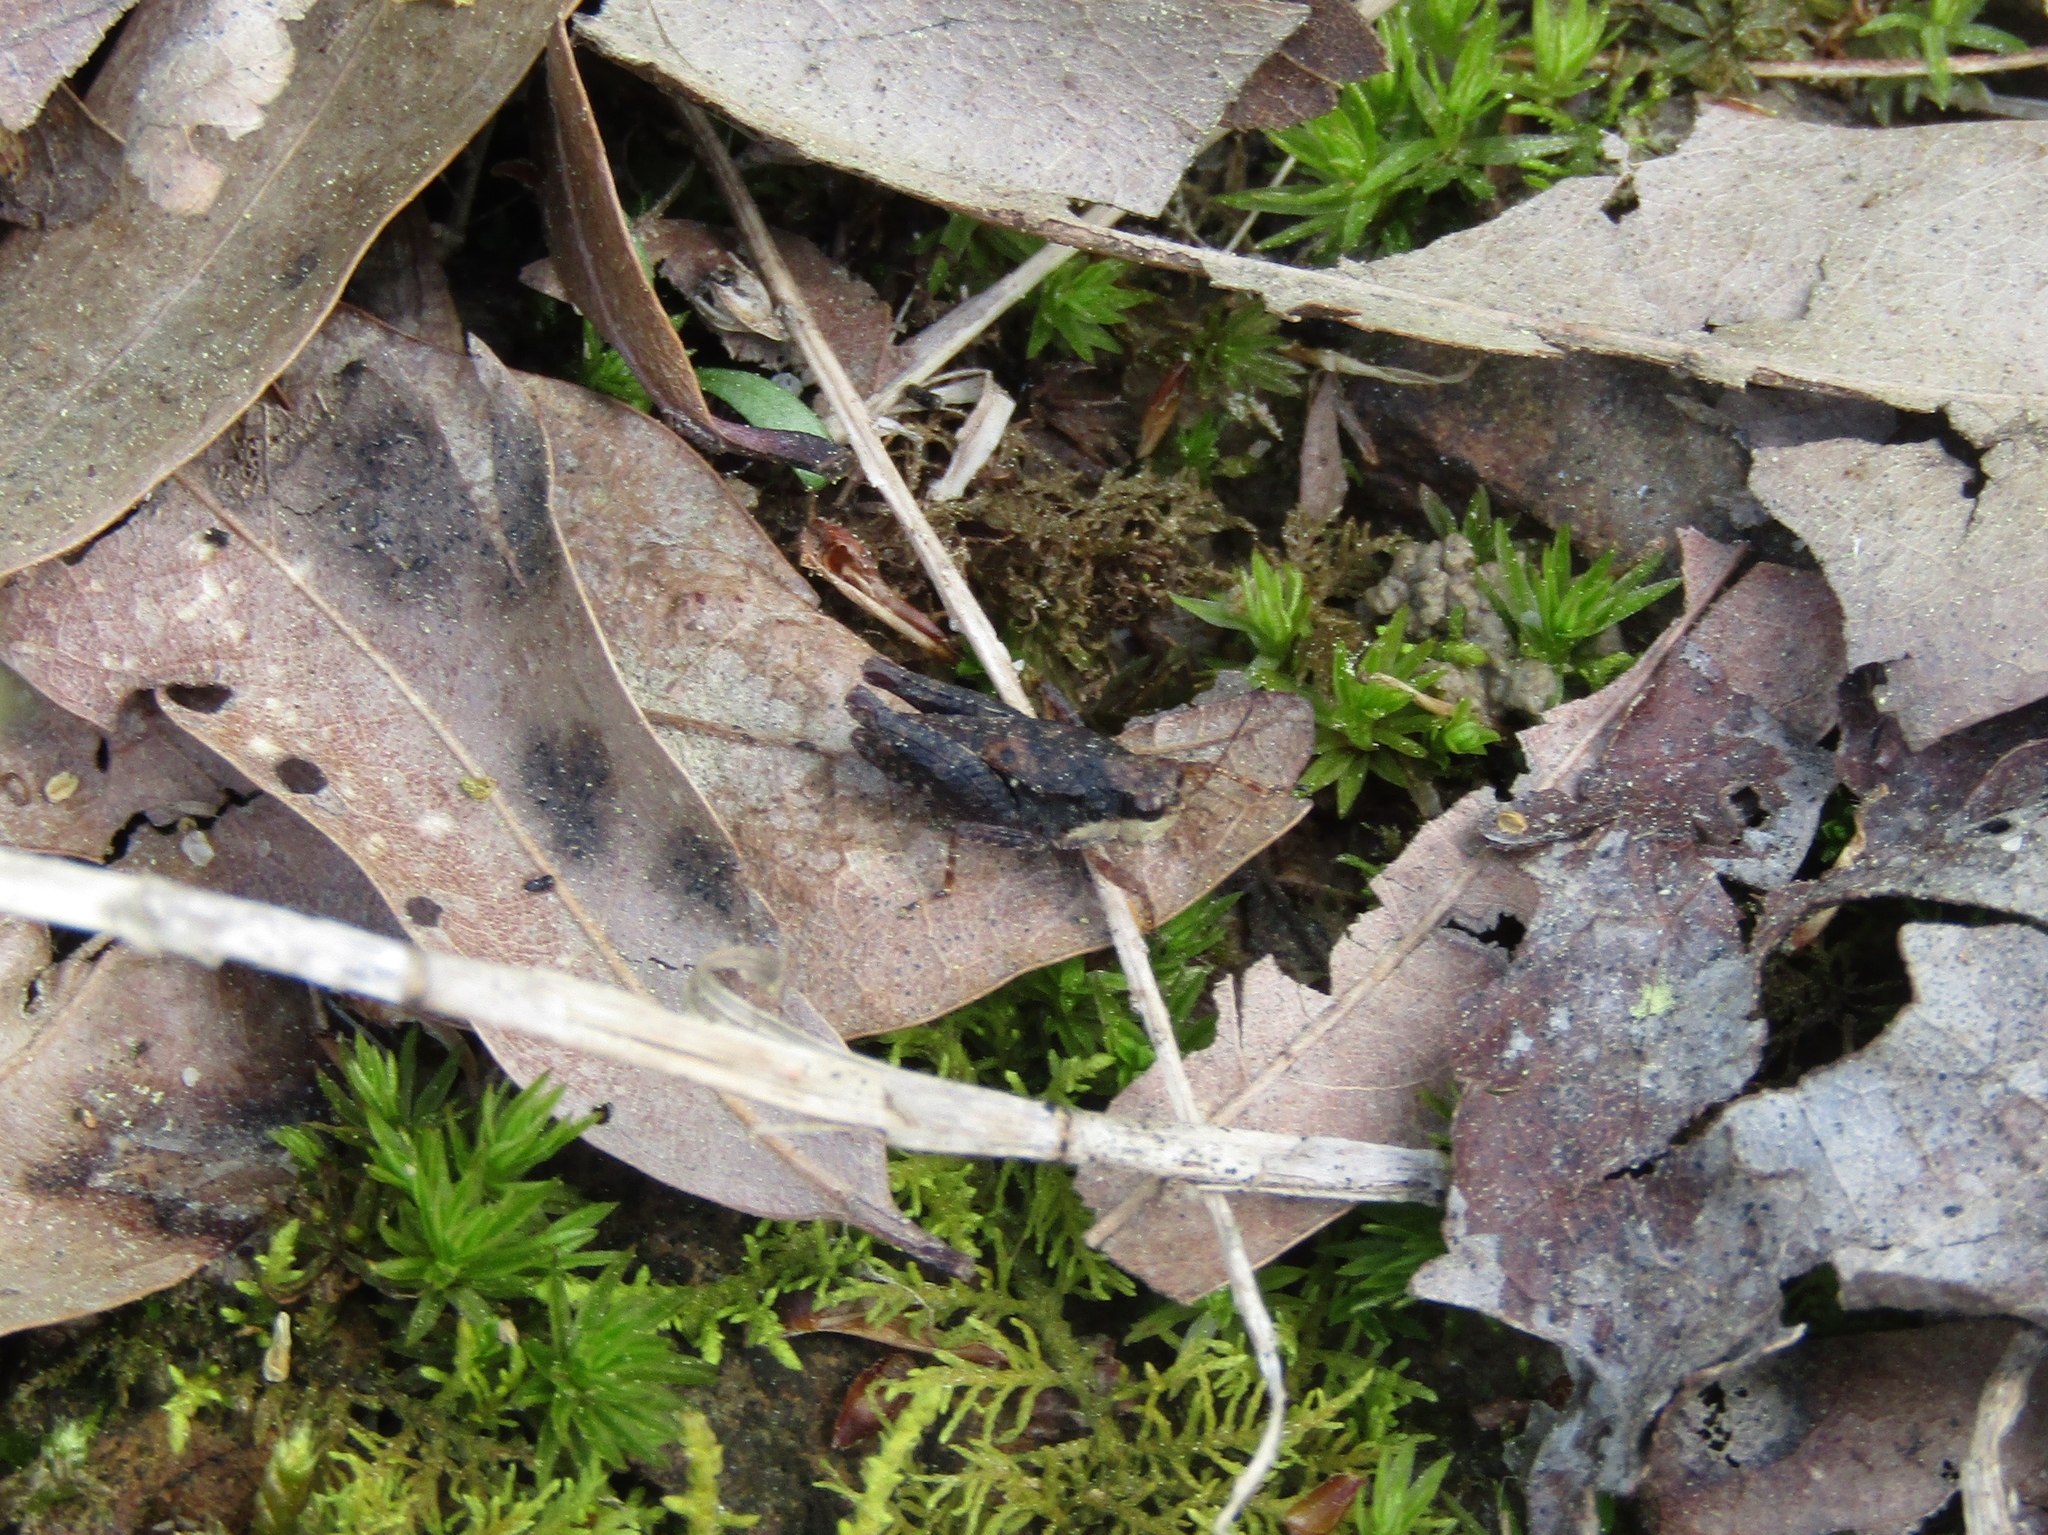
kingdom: Animalia
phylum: Arthropoda
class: Insecta
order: Orthoptera
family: Tetrigidae
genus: Tettigidea
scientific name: Tettigidea laterale
